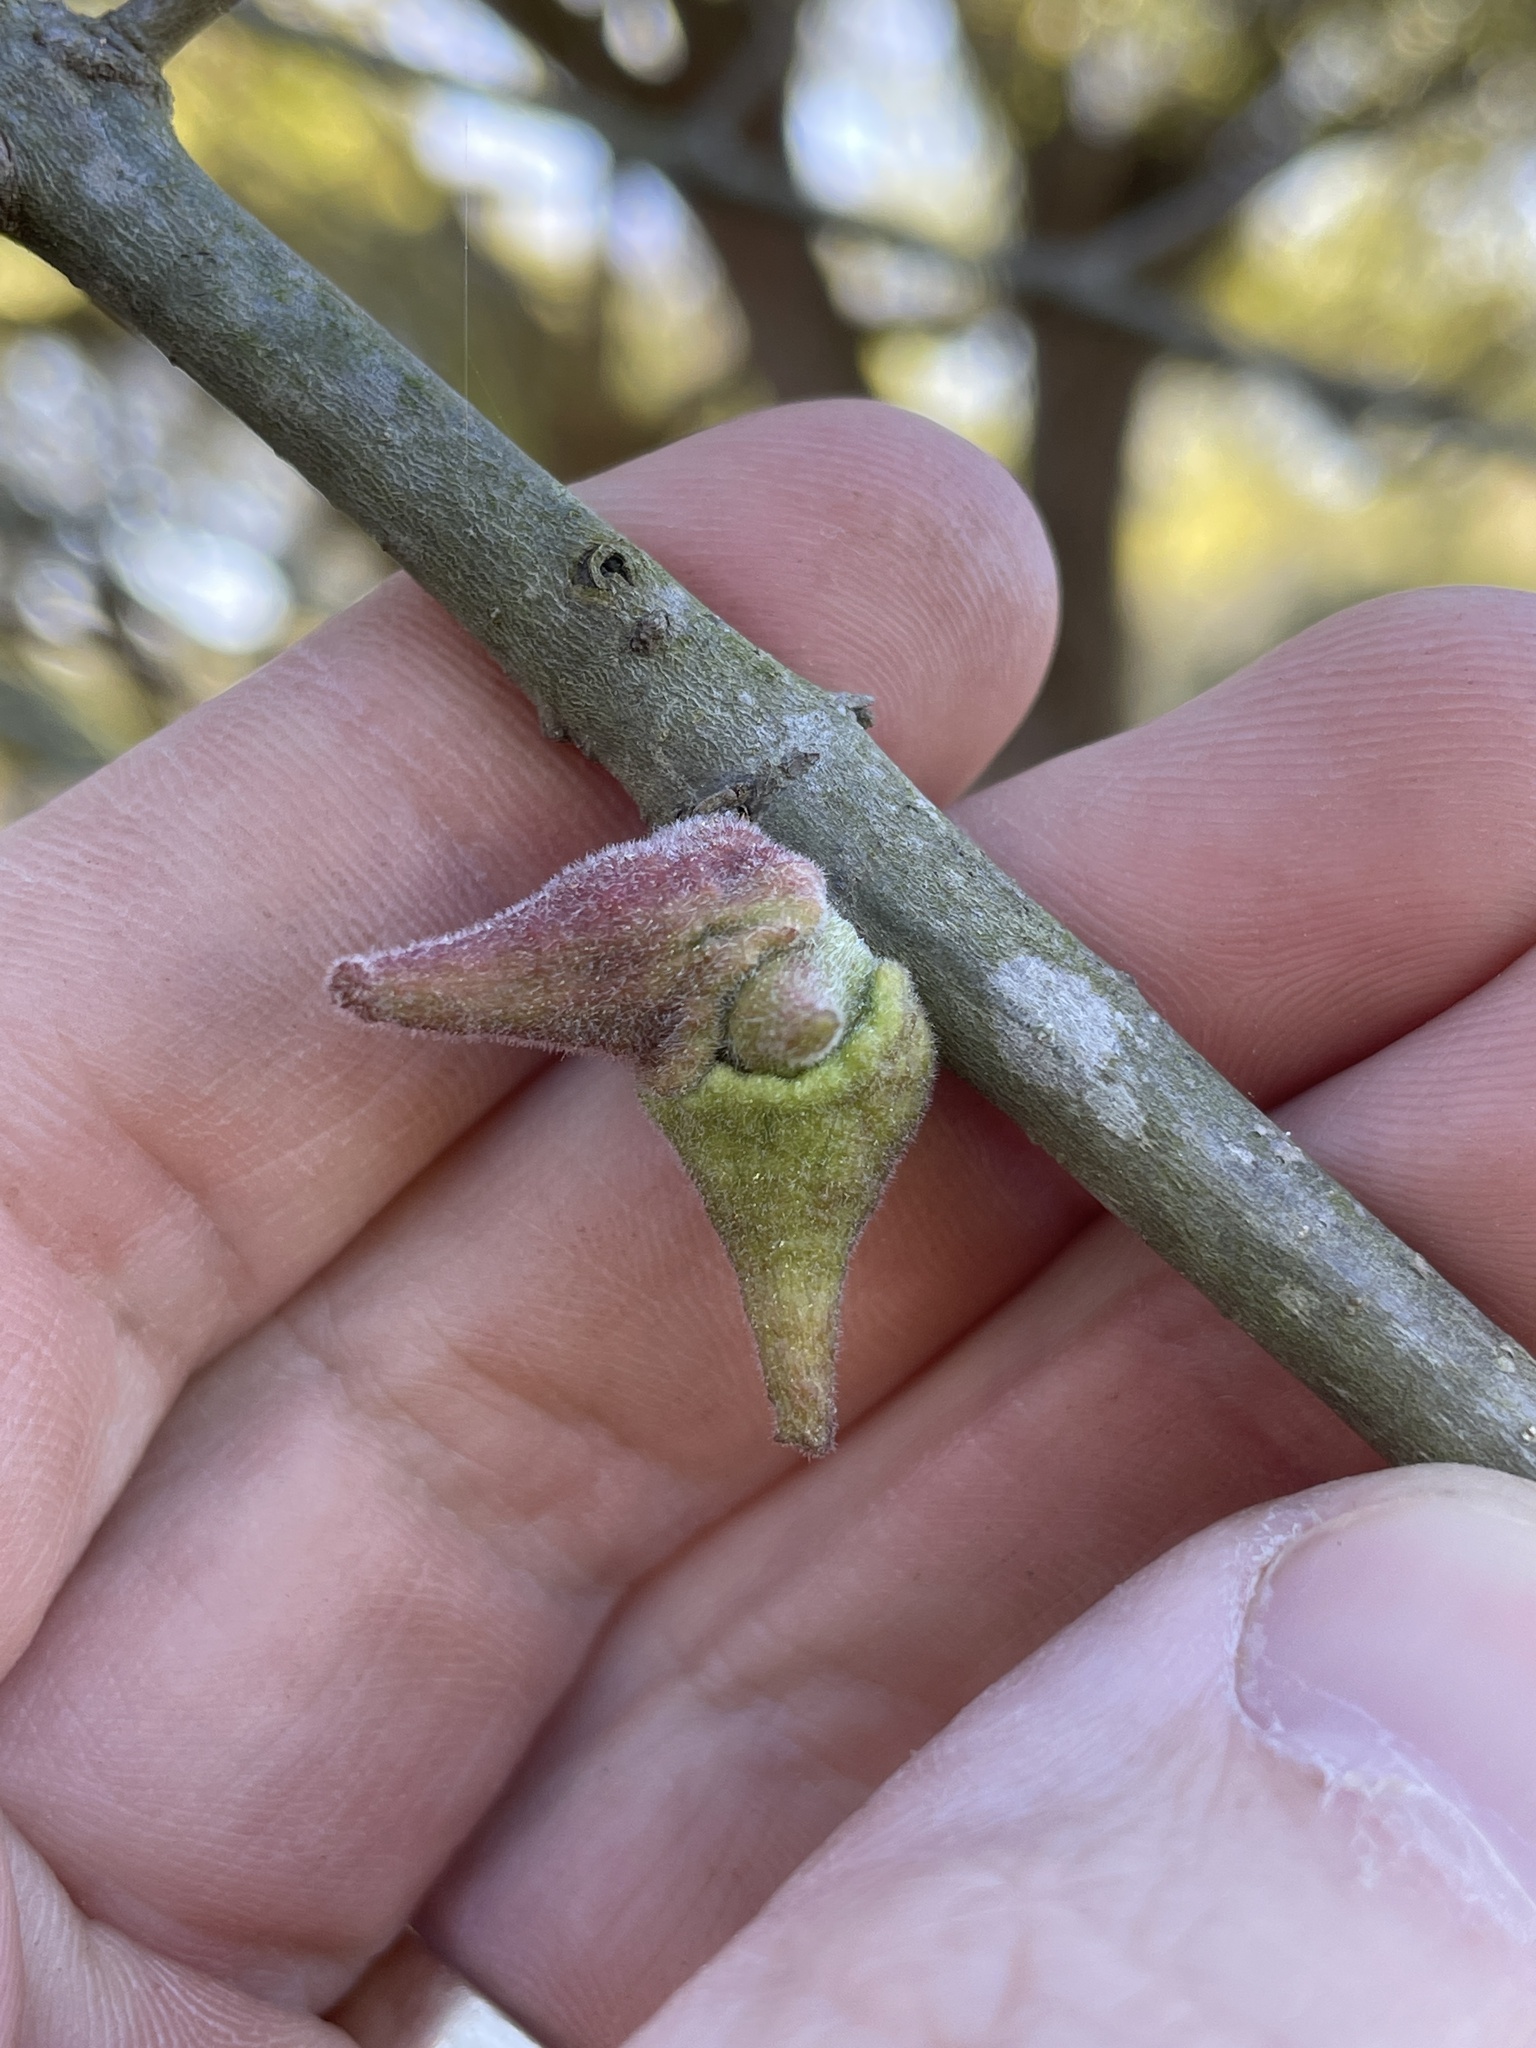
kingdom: Animalia
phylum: Arthropoda
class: Insecta
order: Hymenoptera
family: Cynipidae
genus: Callirhytis
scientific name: Callirhytis
